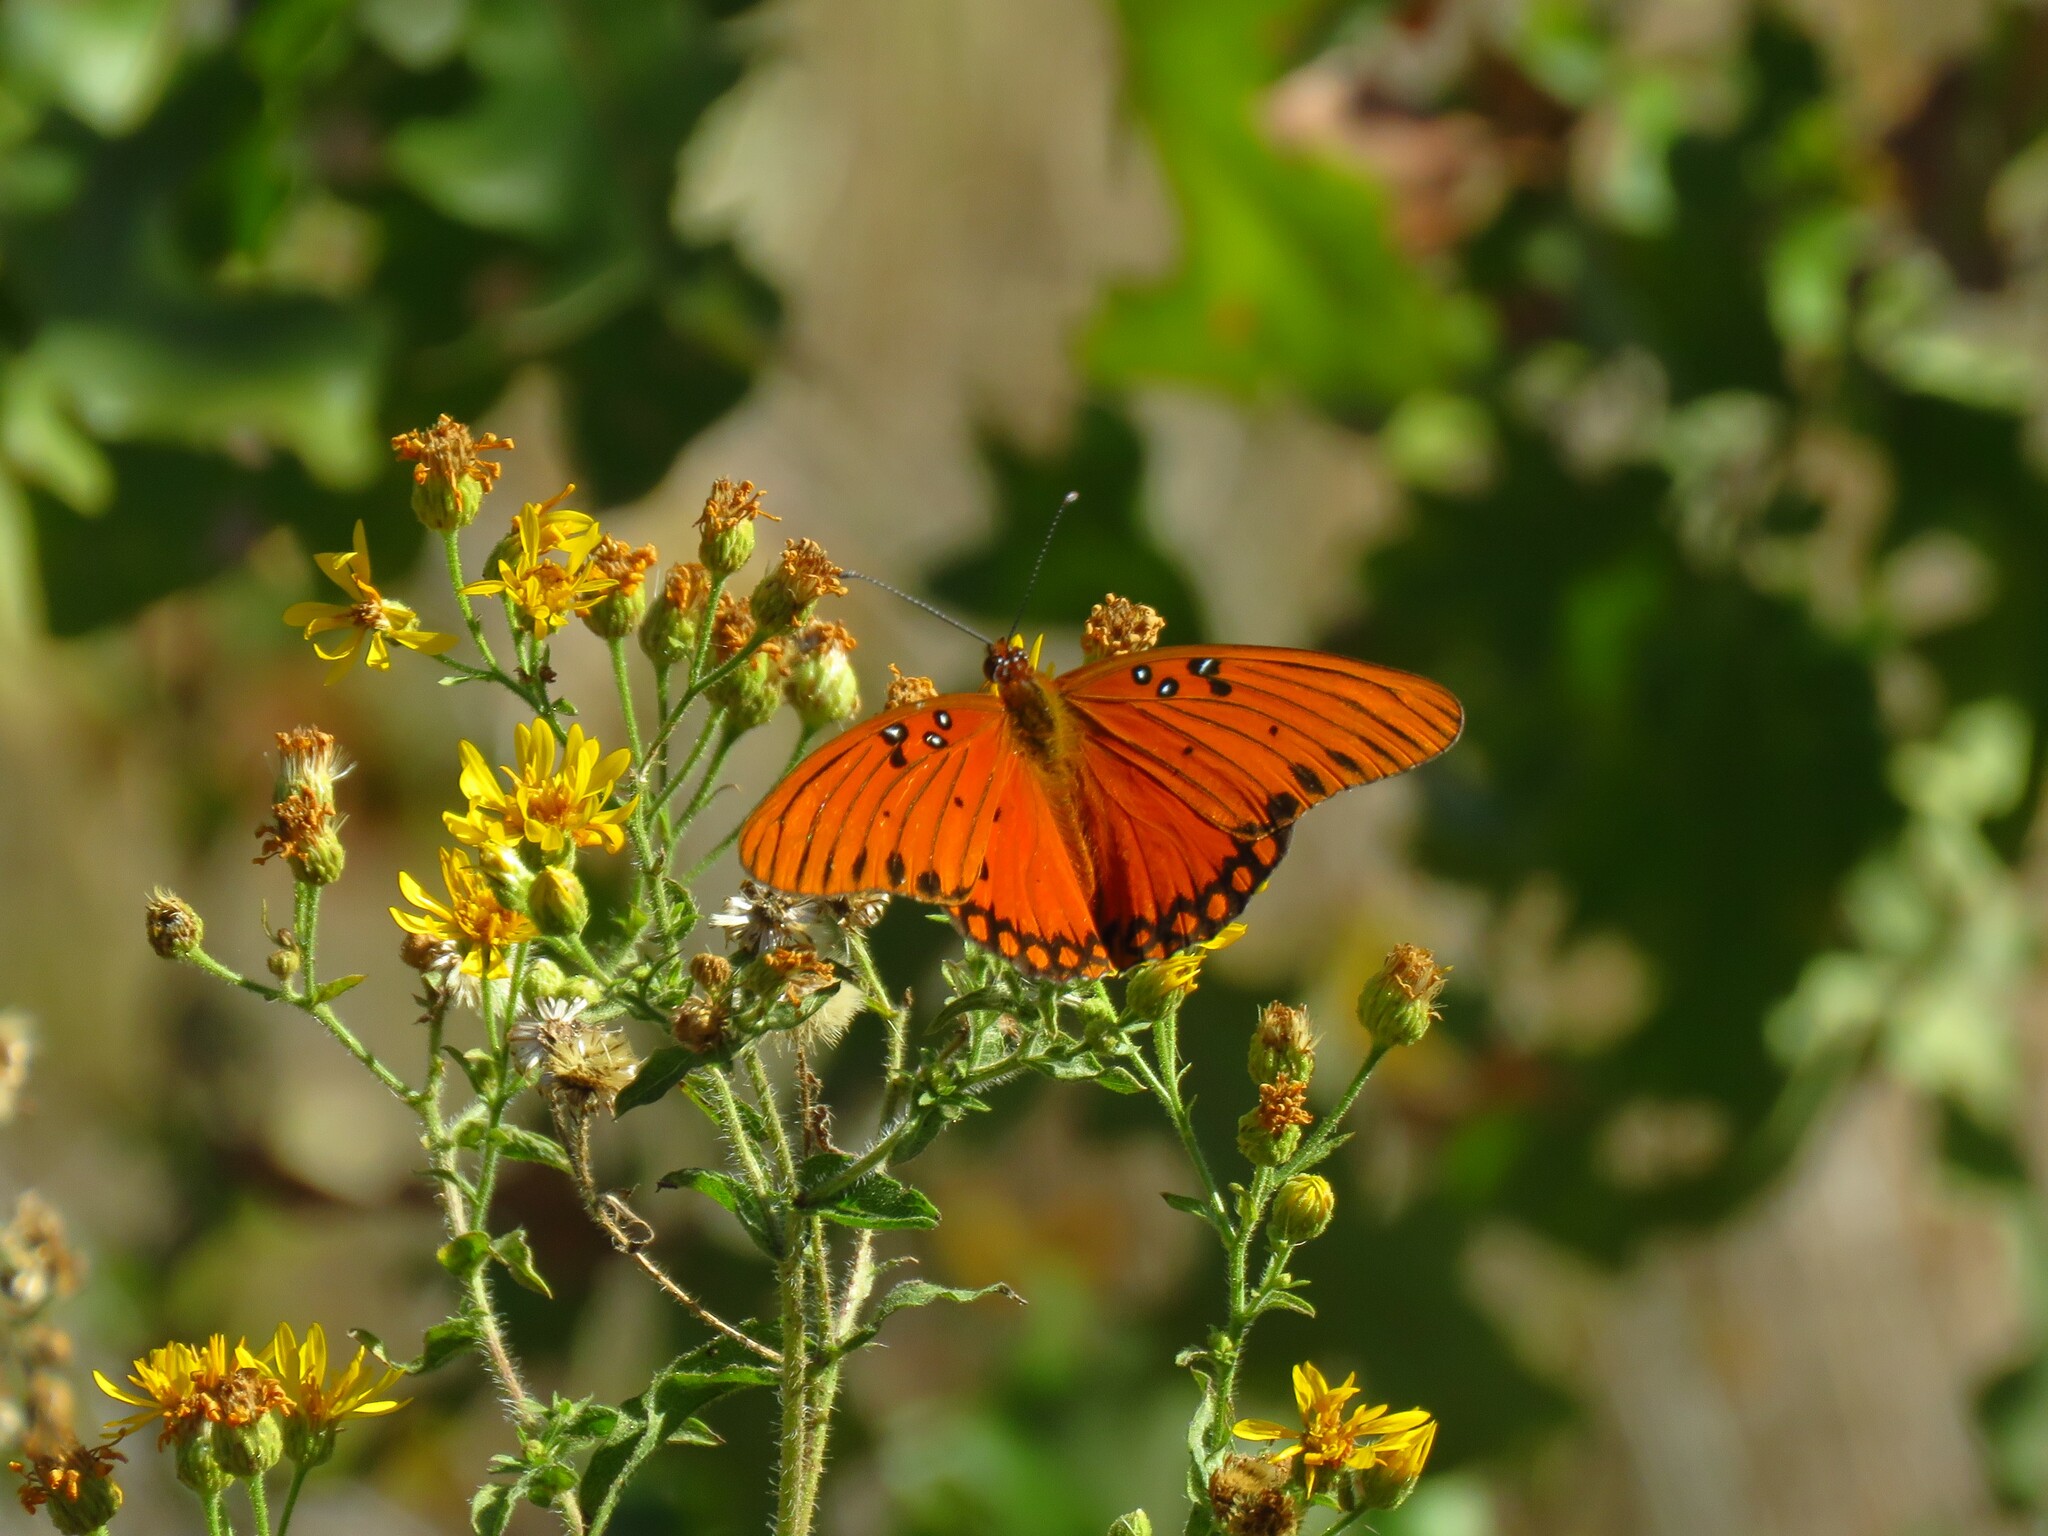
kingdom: Animalia
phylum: Arthropoda
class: Insecta
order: Lepidoptera
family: Nymphalidae
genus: Dione
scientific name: Dione vanillae
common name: Gulf fritillary
